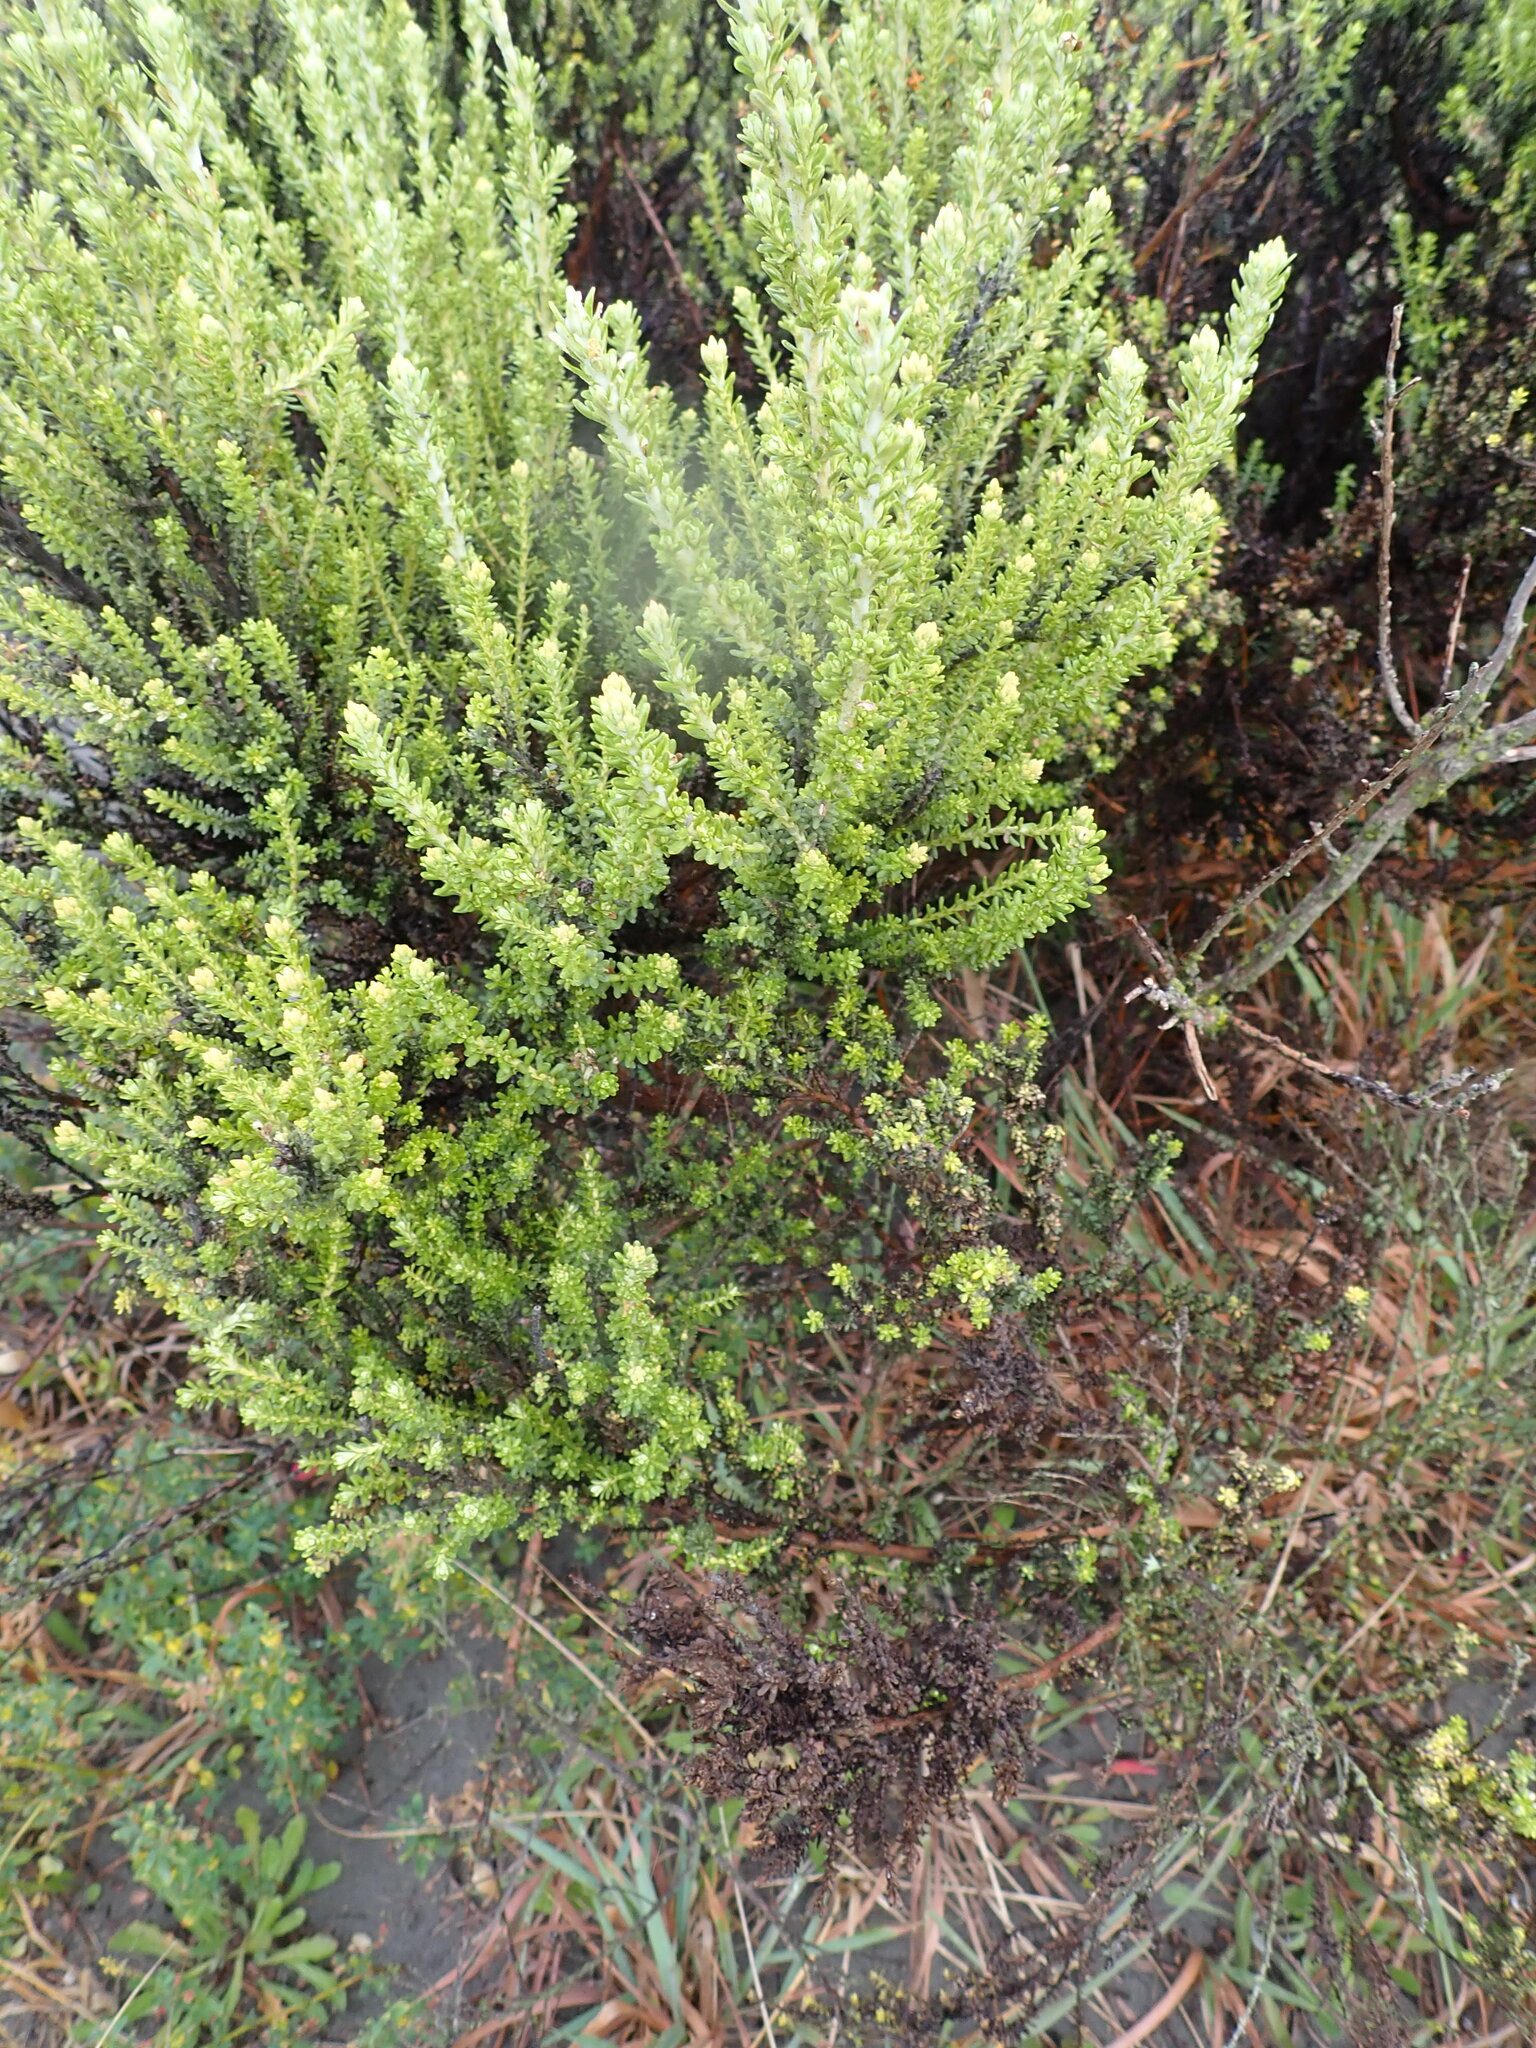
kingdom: Plantae
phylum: Tracheophyta
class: Magnoliopsida
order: Asterales
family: Asteraceae
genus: Ozothamnus
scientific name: Ozothamnus leptophyllus
